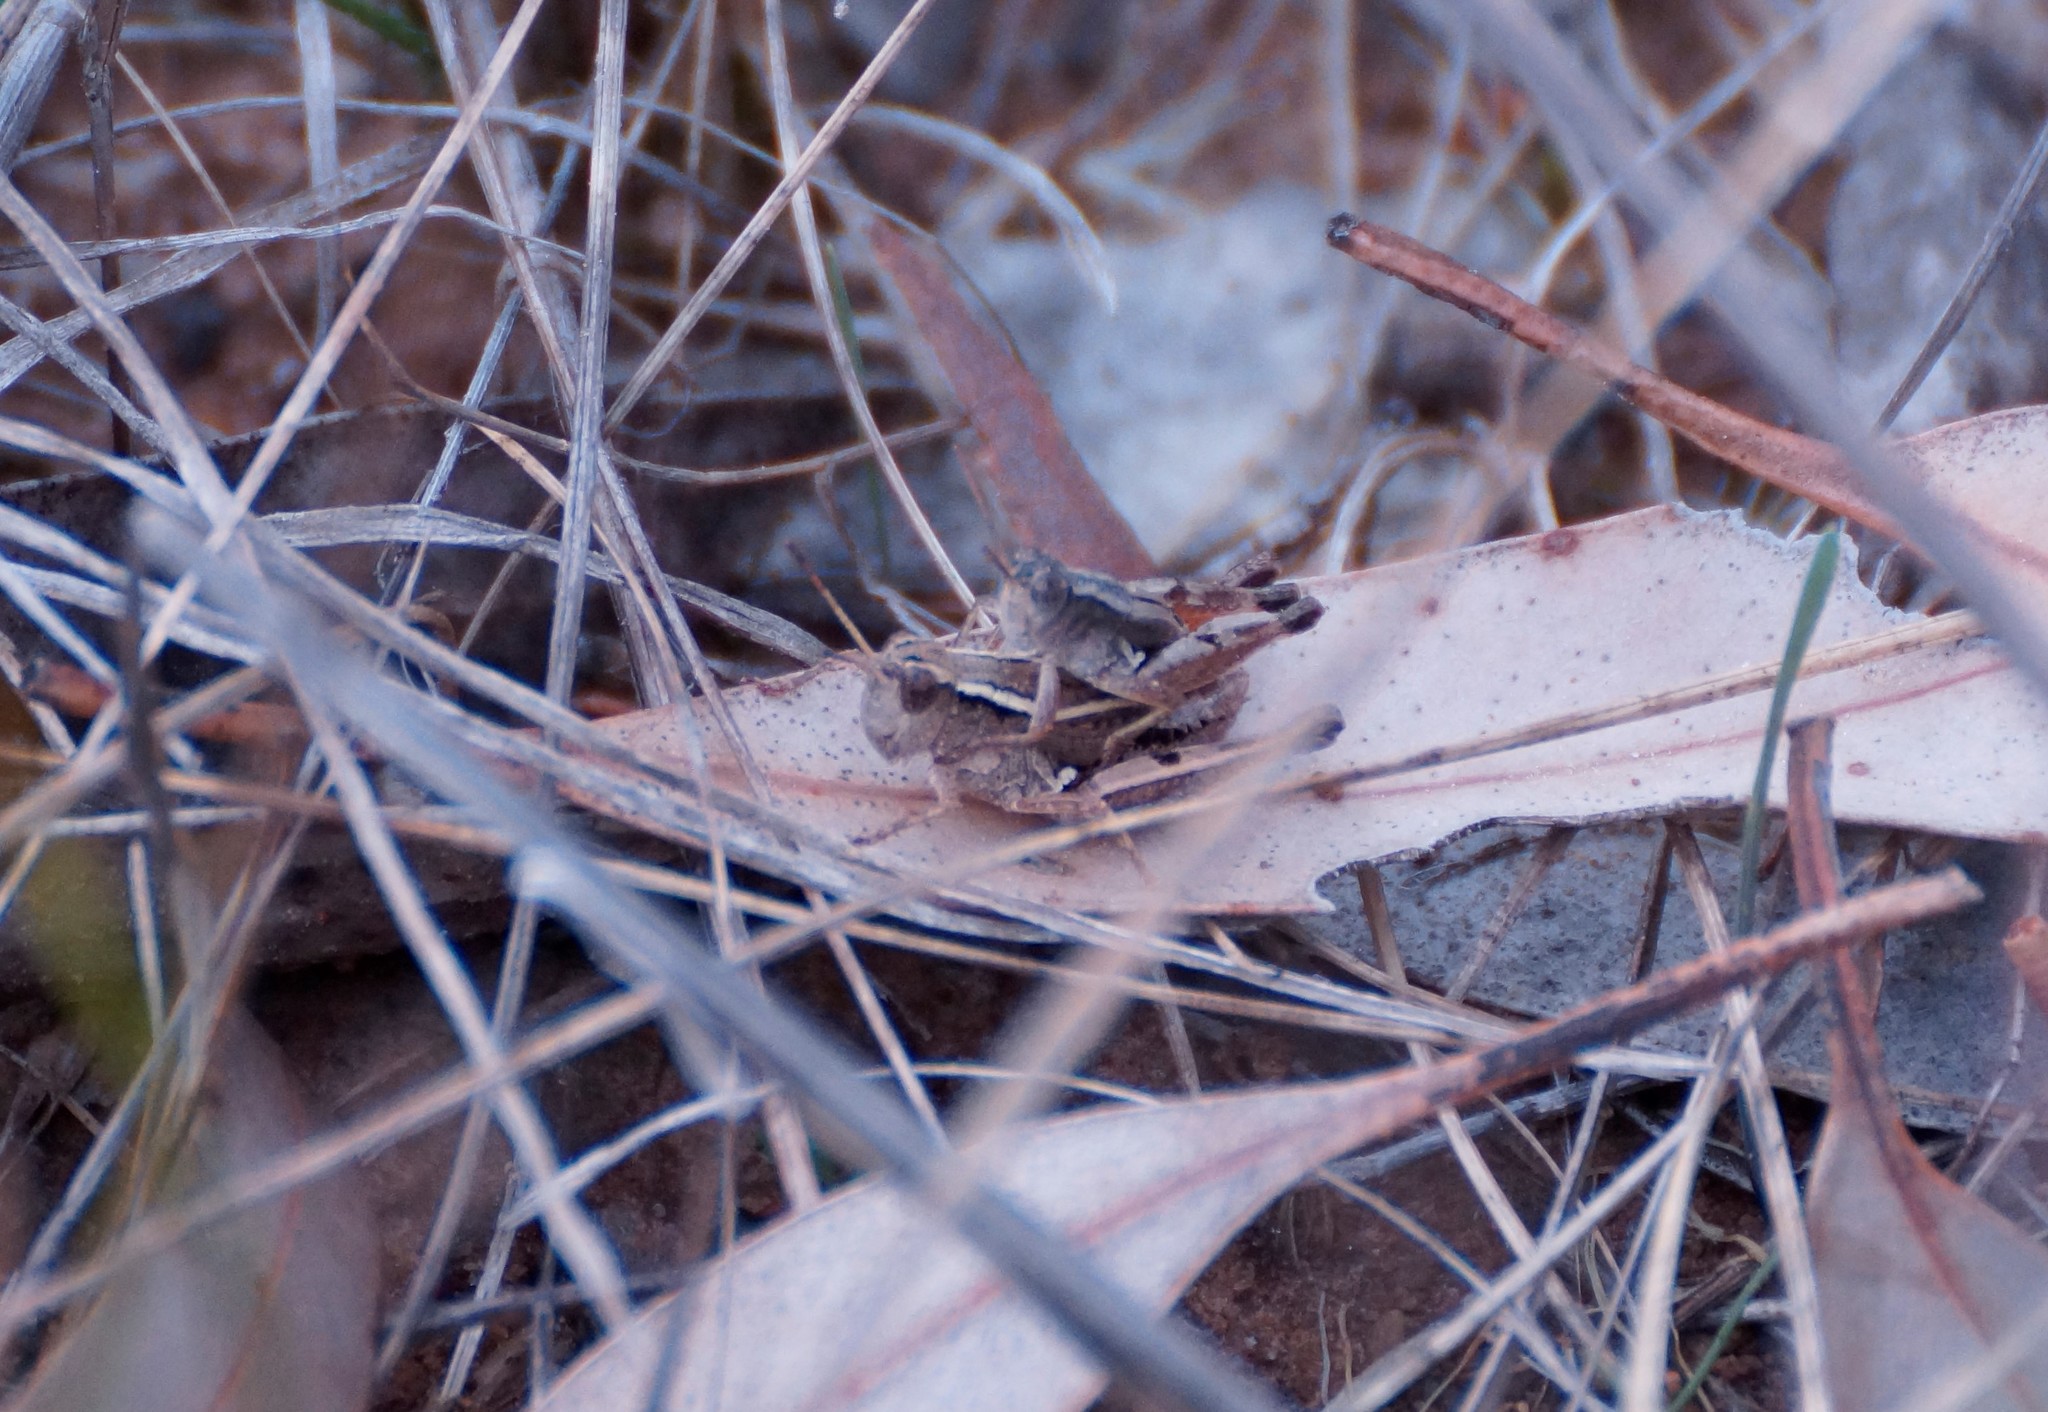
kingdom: Animalia
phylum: Arthropoda
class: Insecta
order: Orthoptera
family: Acrididae
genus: Phaulacridium
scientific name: Phaulacridium vittatum
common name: Wingless grasshopper
